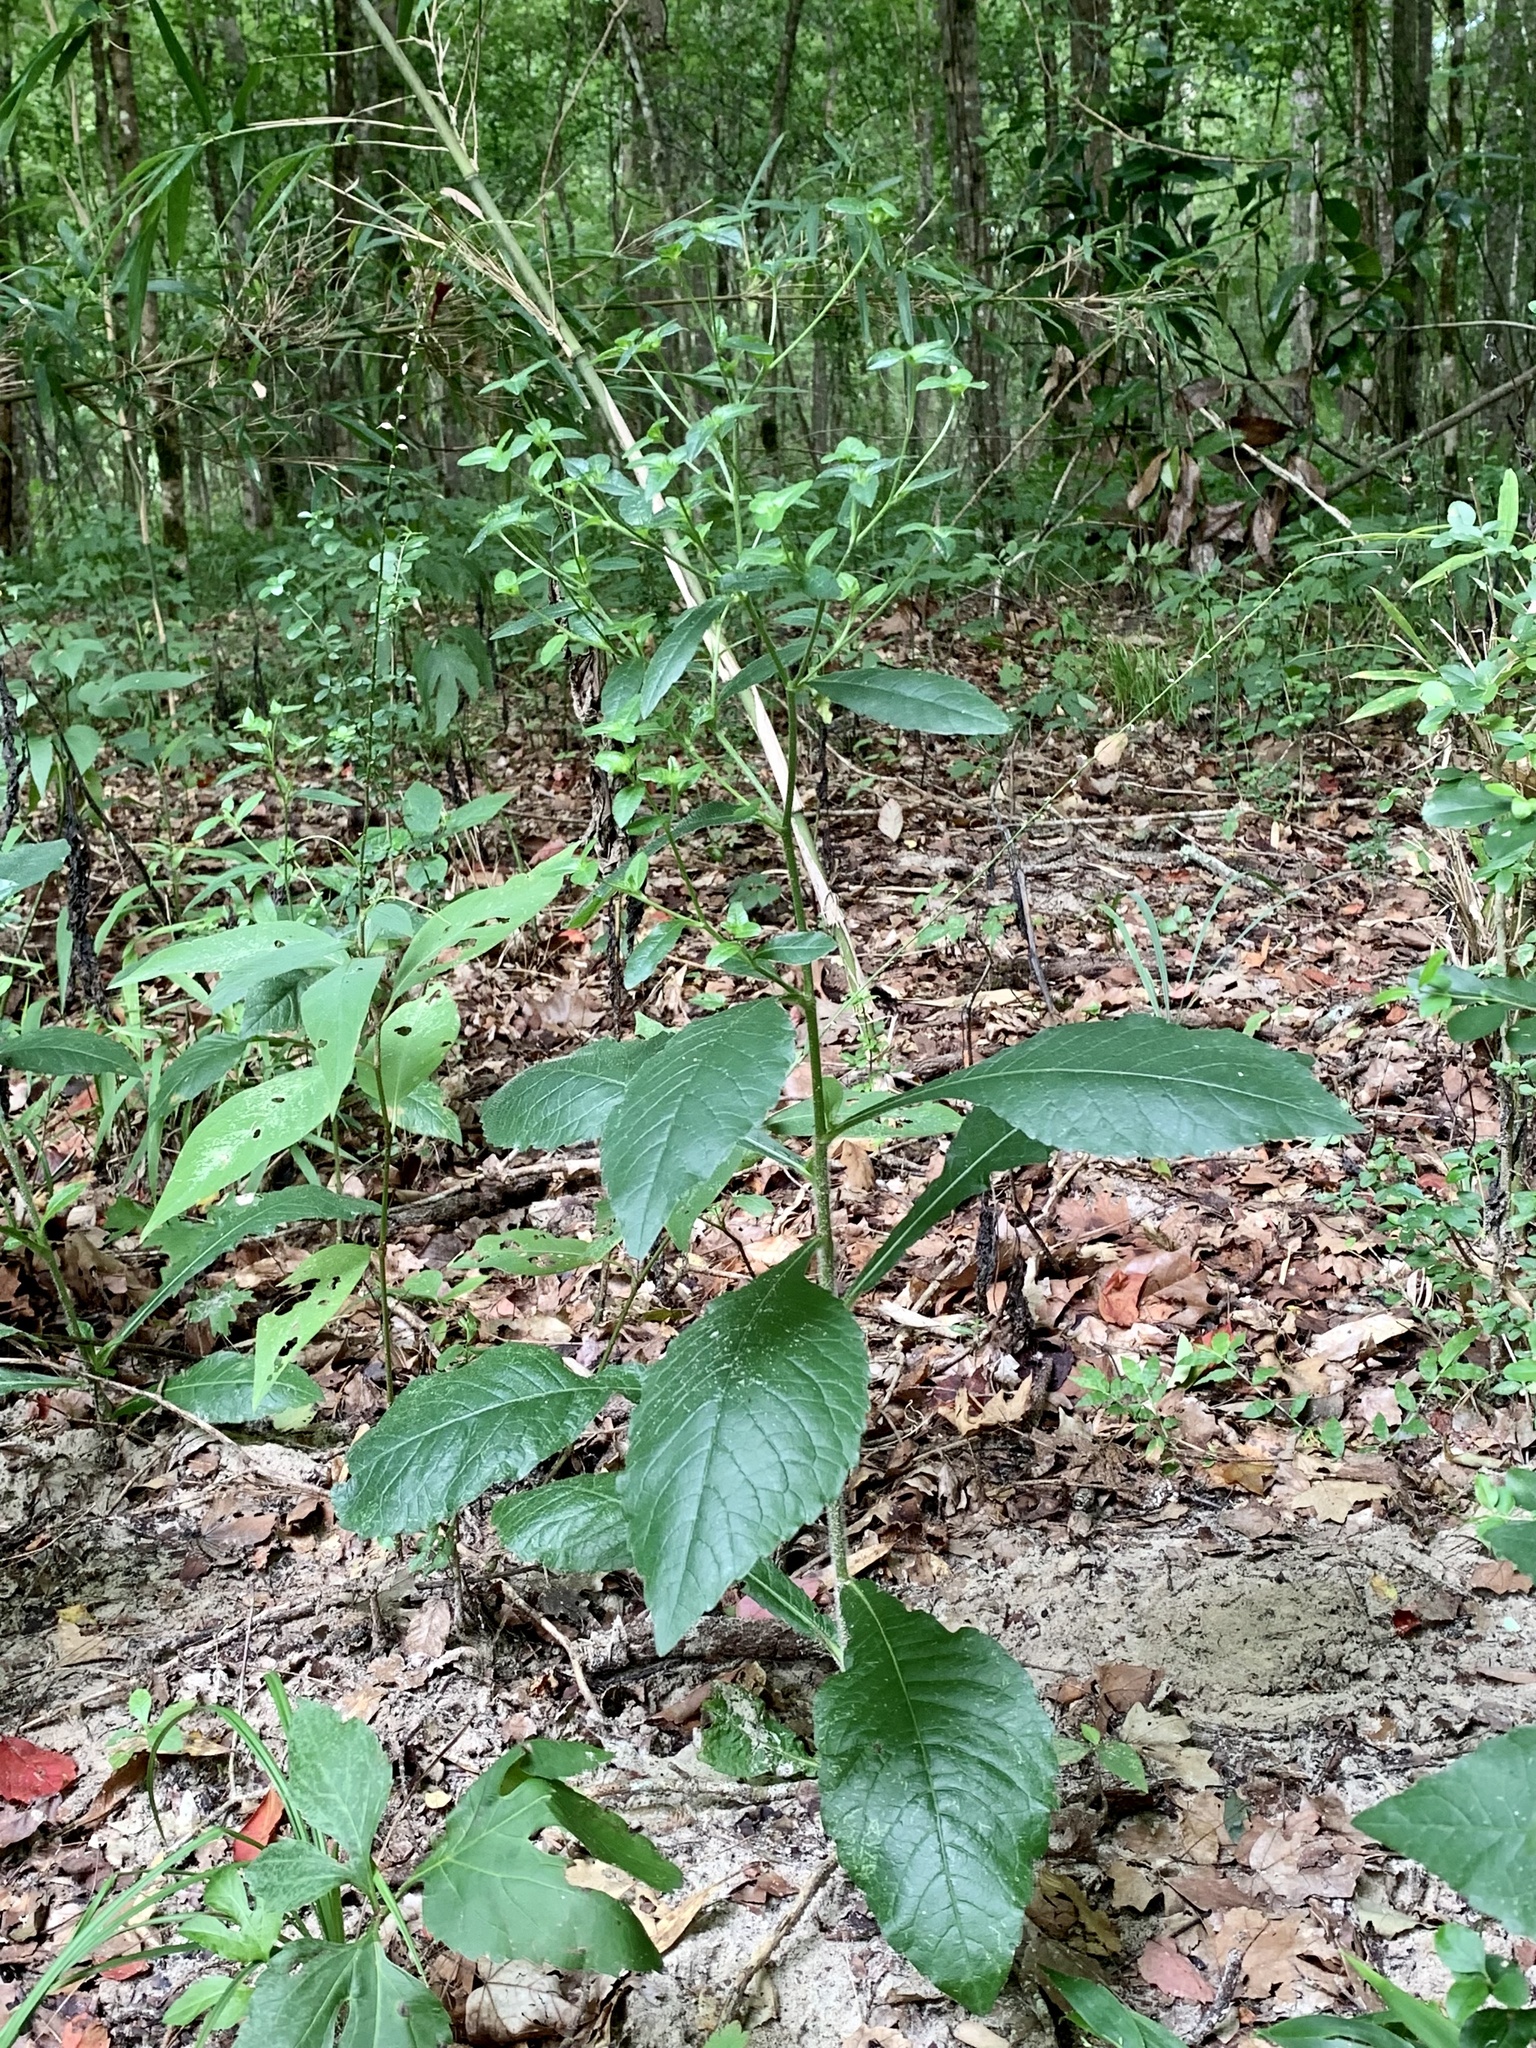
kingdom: Plantae
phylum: Tracheophyta
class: Magnoliopsida
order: Asterales
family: Asteraceae
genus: Elephantopus
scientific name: Elephantopus tomentosus
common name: Tobacco-weed
